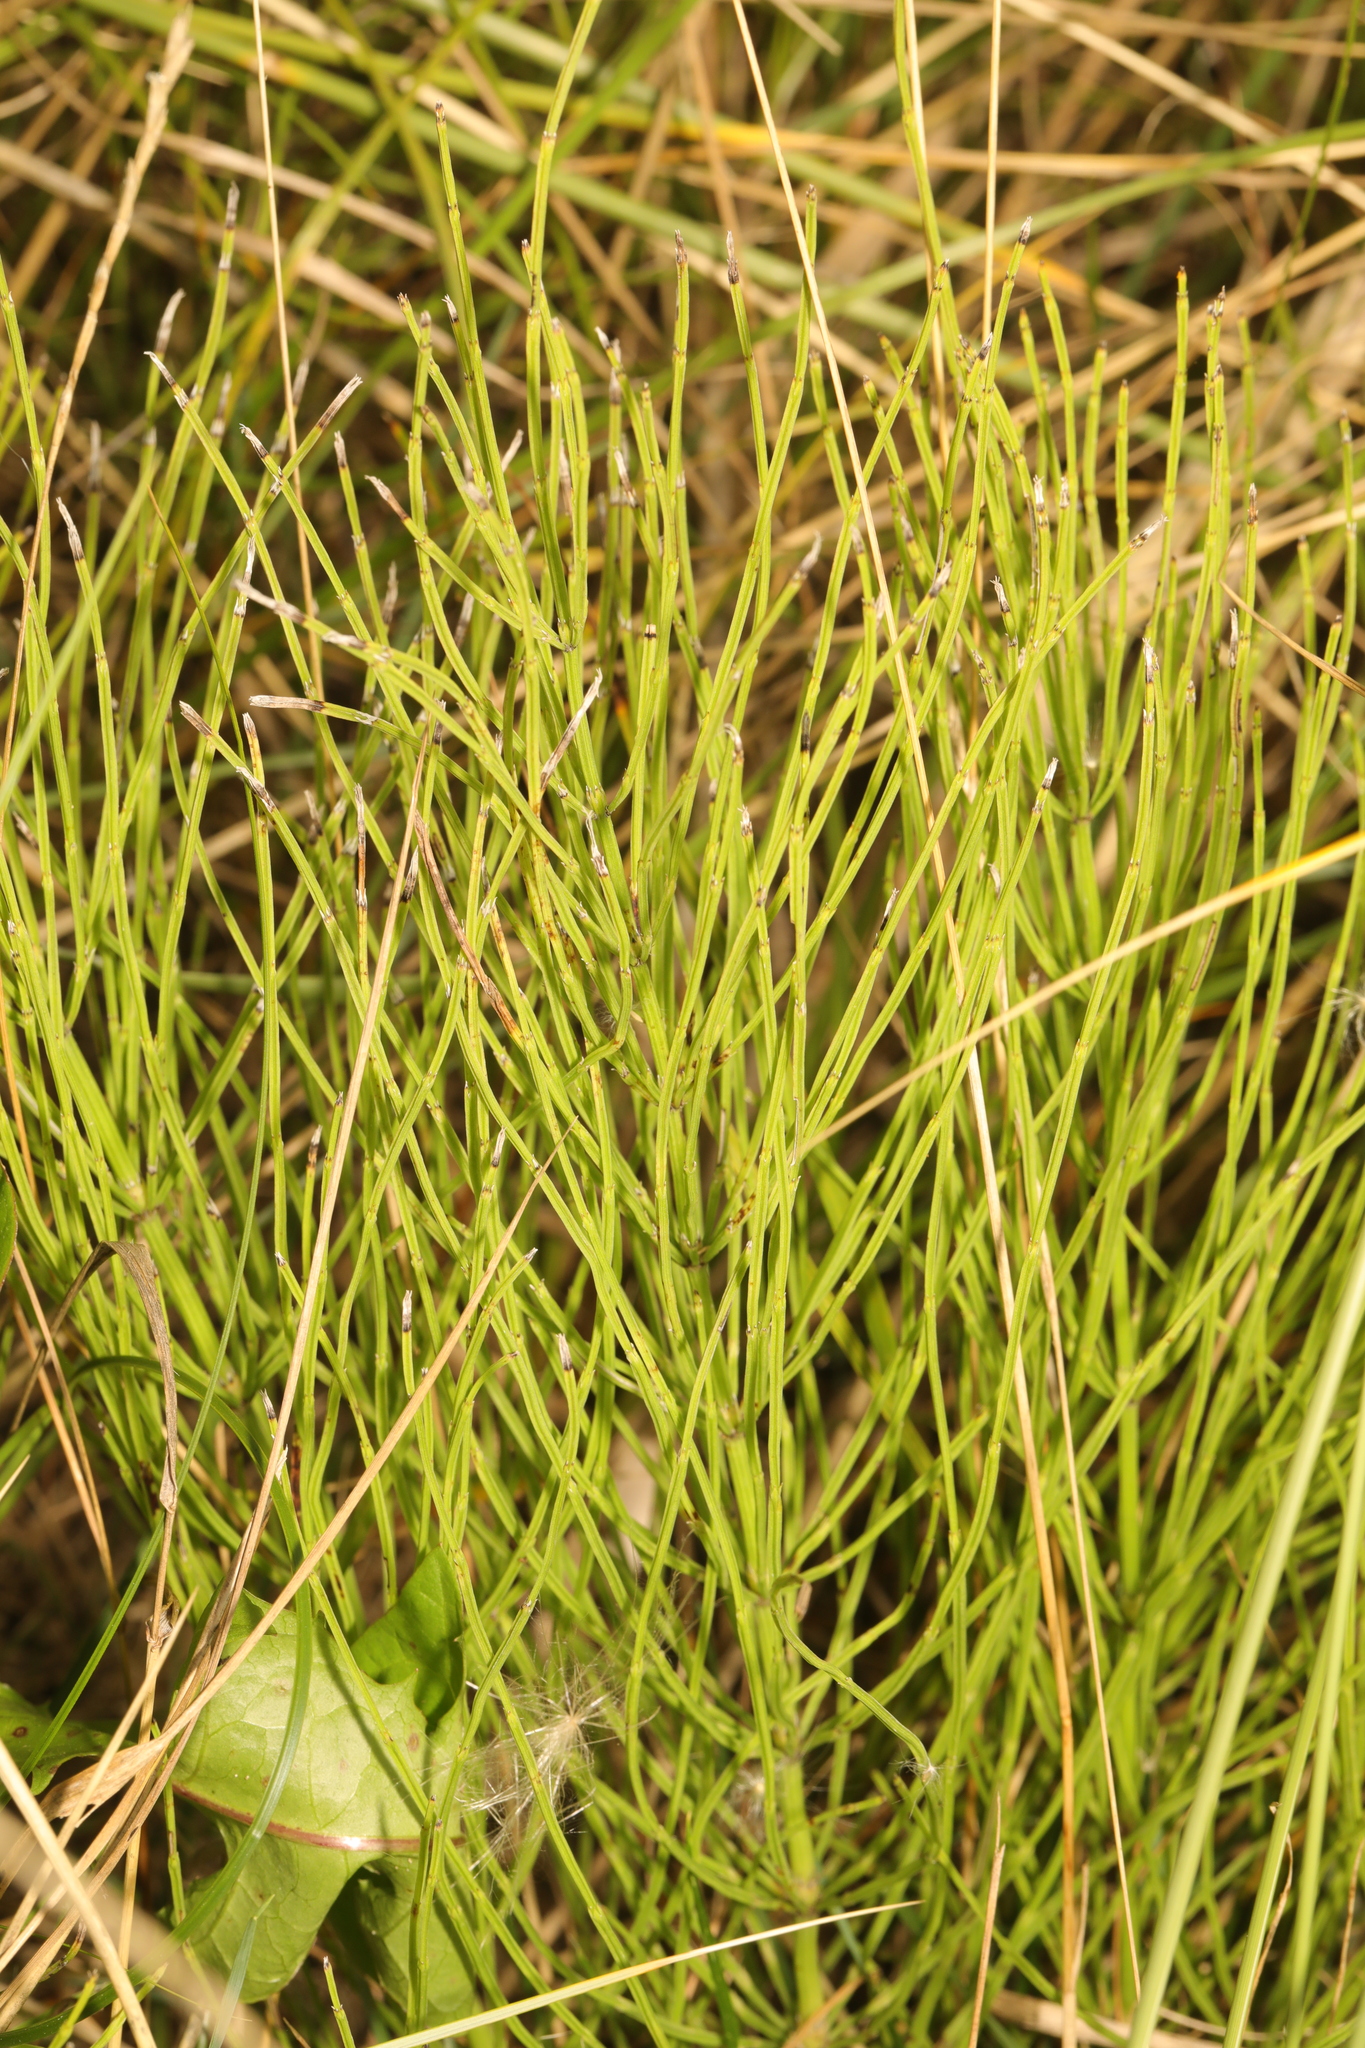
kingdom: Plantae
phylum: Tracheophyta
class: Polypodiopsida
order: Equisetales
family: Equisetaceae
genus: Equisetum
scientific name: Equisetum arvense
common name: Field horsetail
